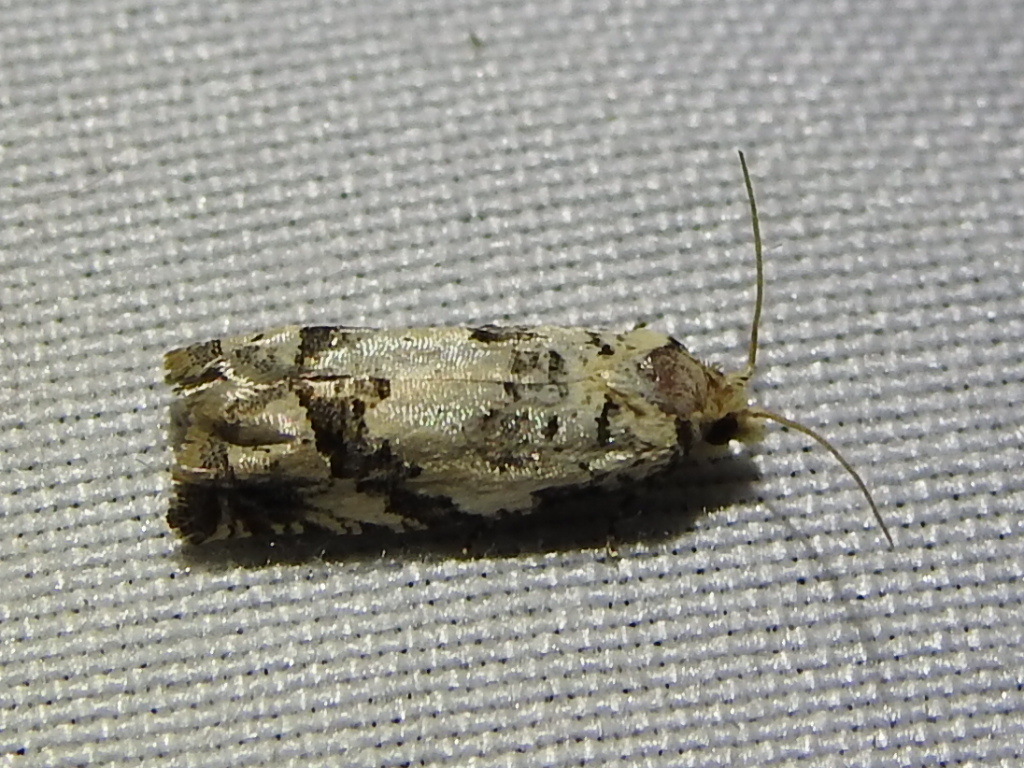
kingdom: Animalia
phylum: Arthropoda
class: Insecta
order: Lepidoptera
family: Tortricidae
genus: Pelochrista
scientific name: Pelochrista matutina
